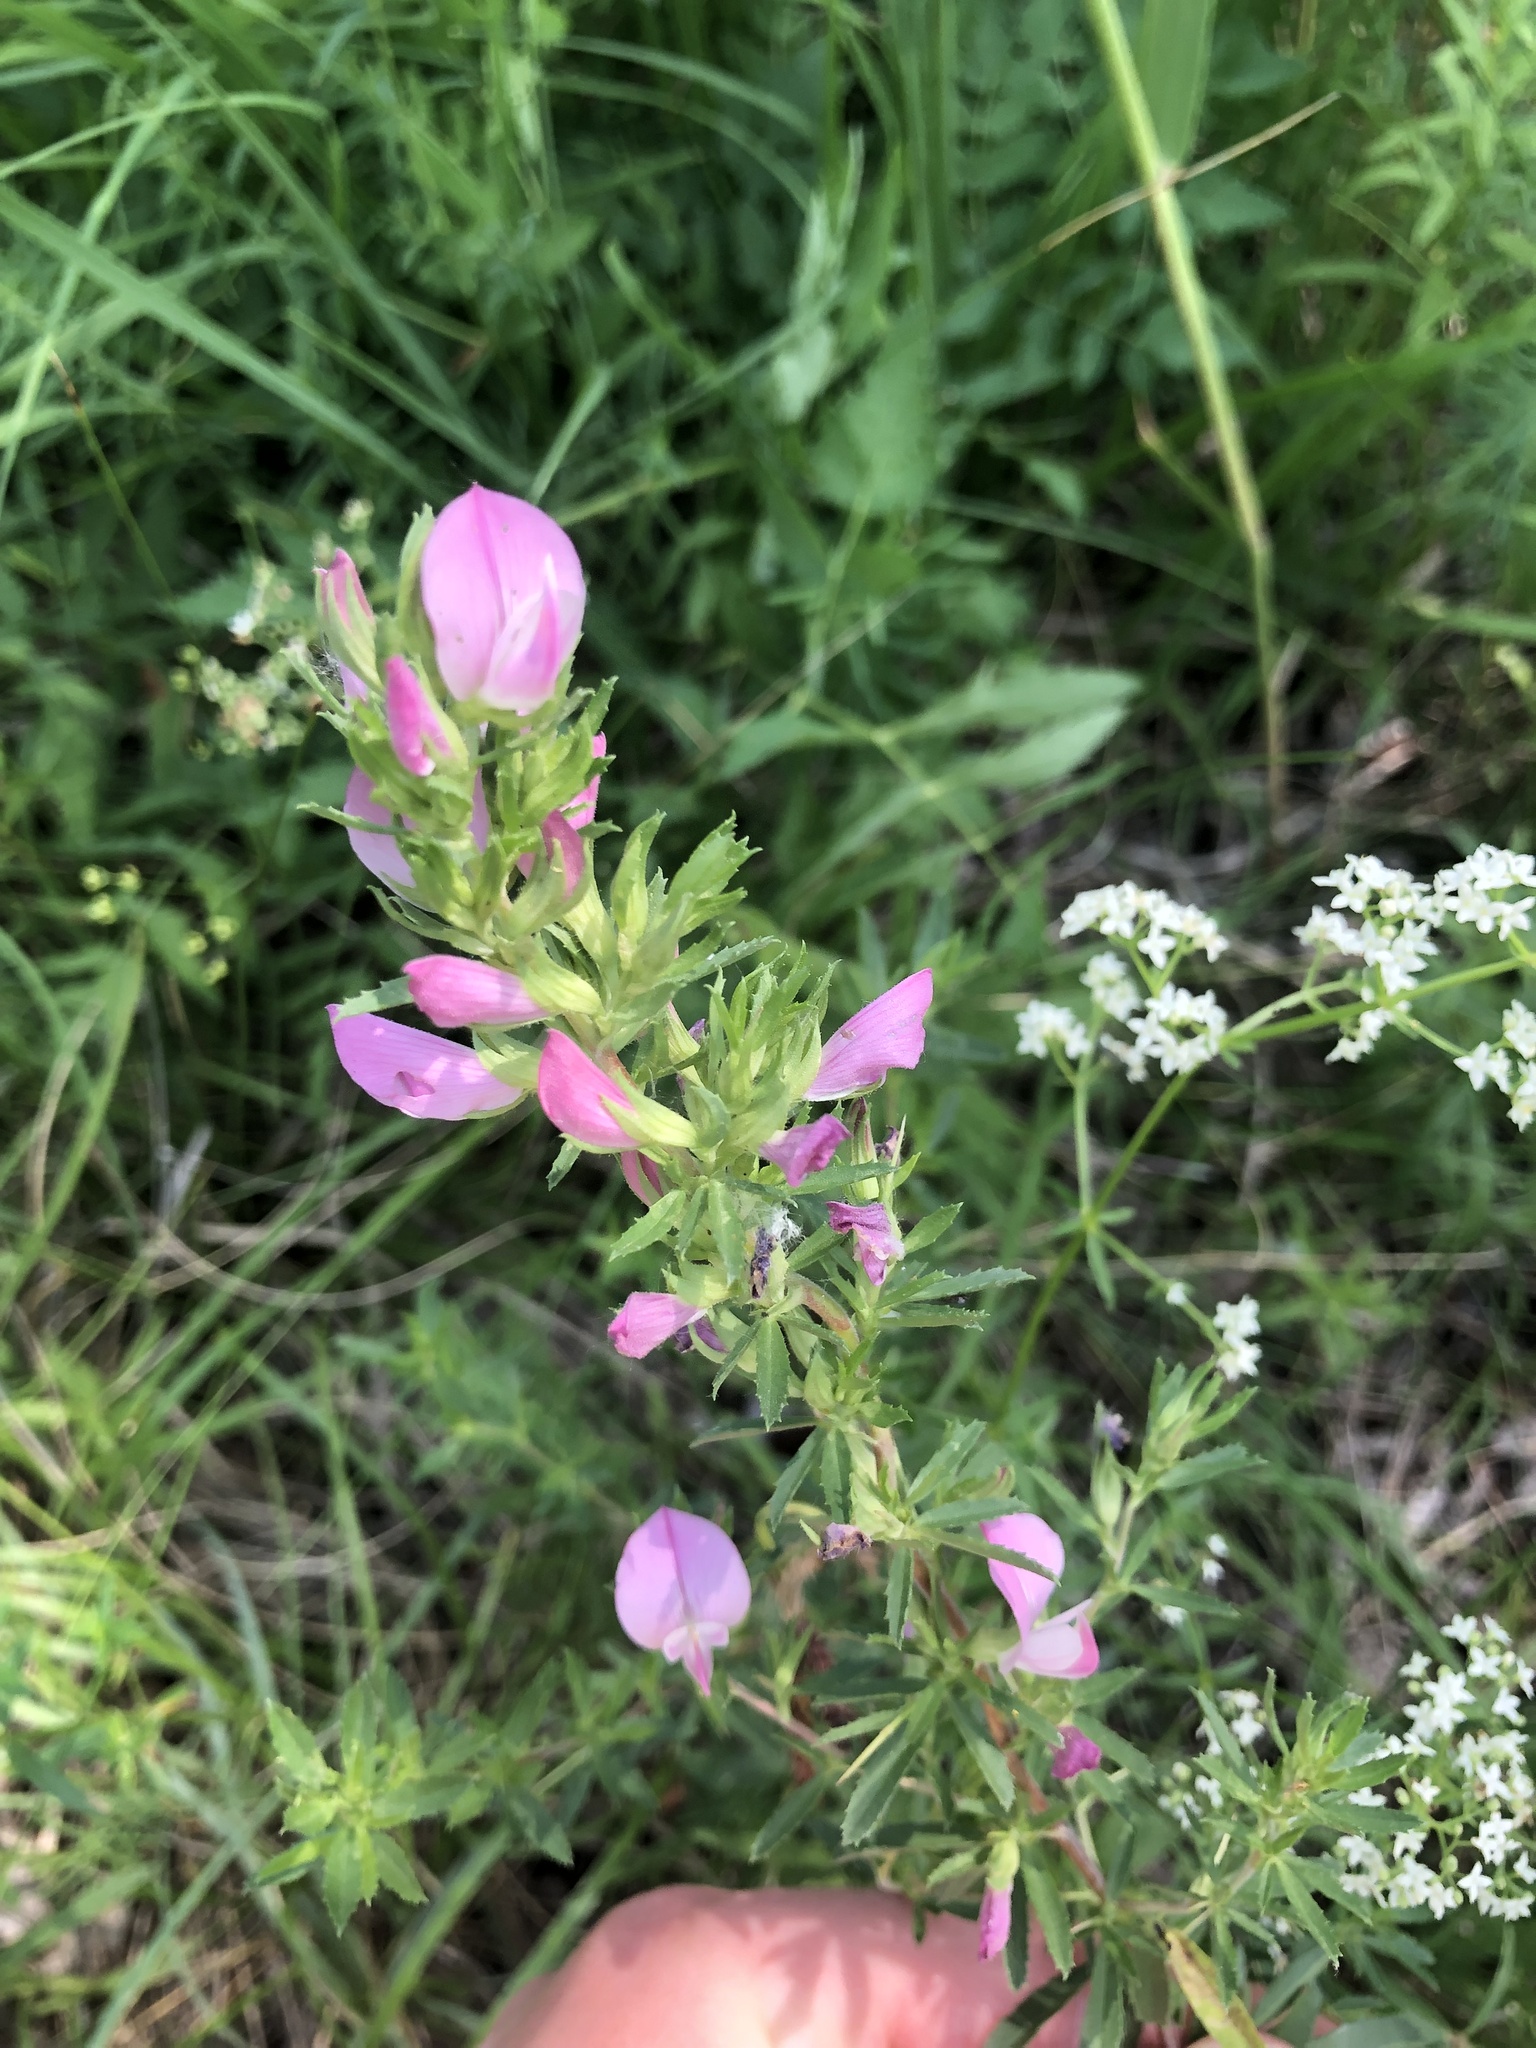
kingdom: Plantae
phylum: Tracheophyta
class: Magnoliopsida
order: Fabales
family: Fabaceae
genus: Ononis
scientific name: Ononis spinosa
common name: Spiny restharrow
